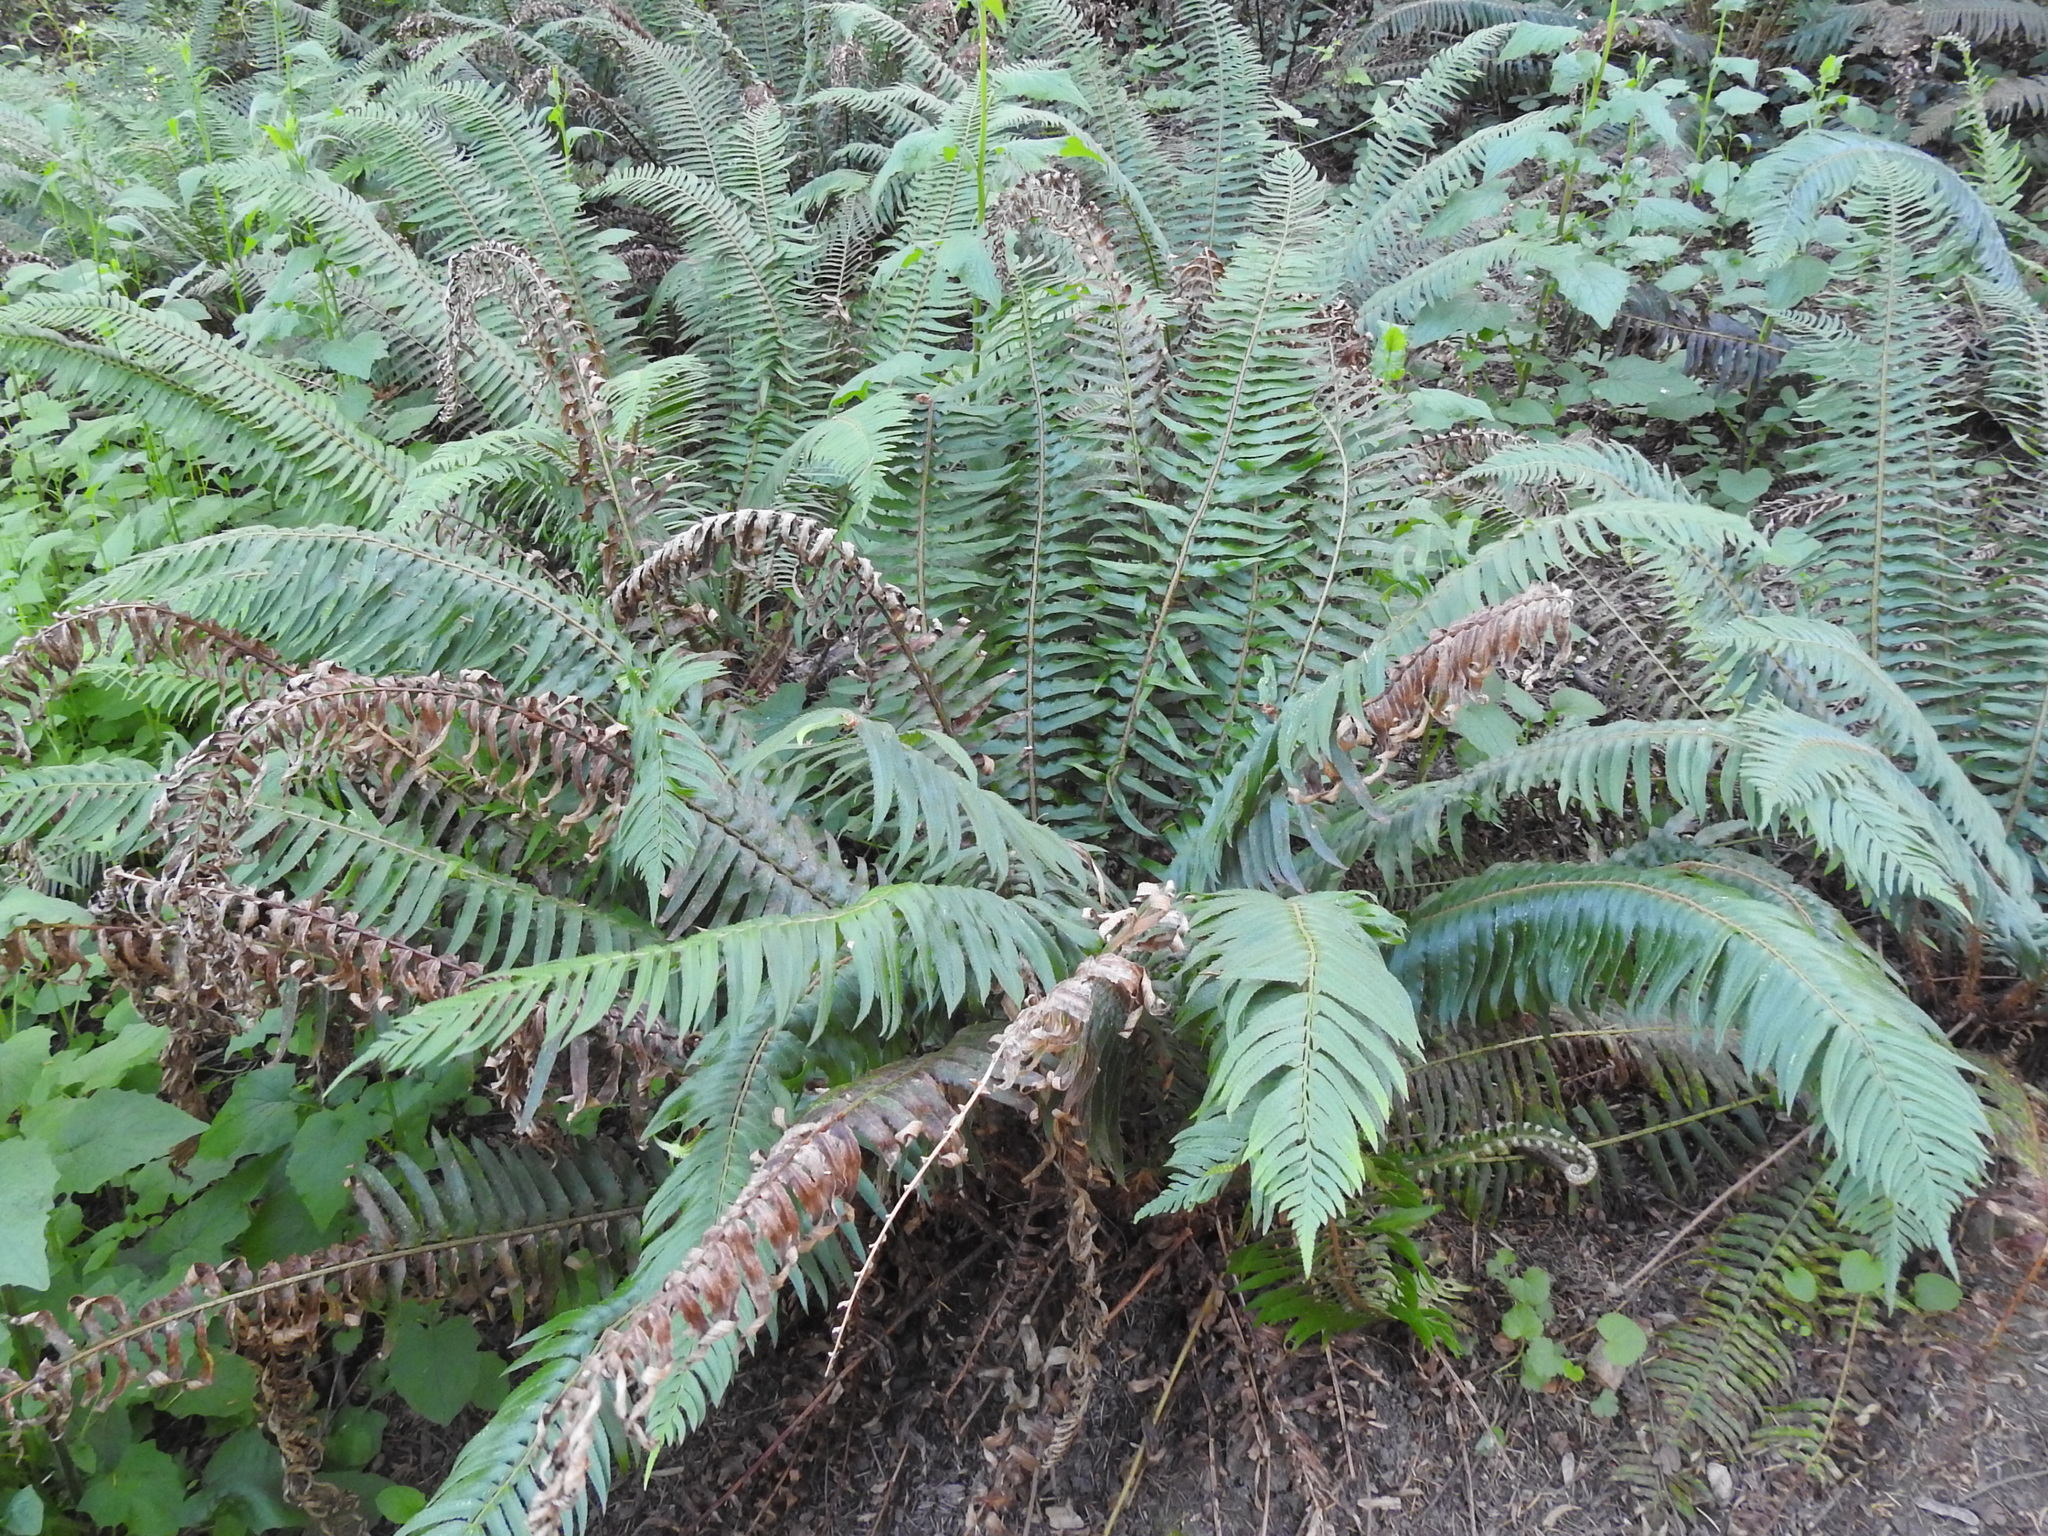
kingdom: Plantae
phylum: Tracheophyta
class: Polypodiopsida
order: Polypodiales
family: Dryopteridaceae
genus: Polystichum
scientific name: Polystichum munitum
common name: Western sword-fern
